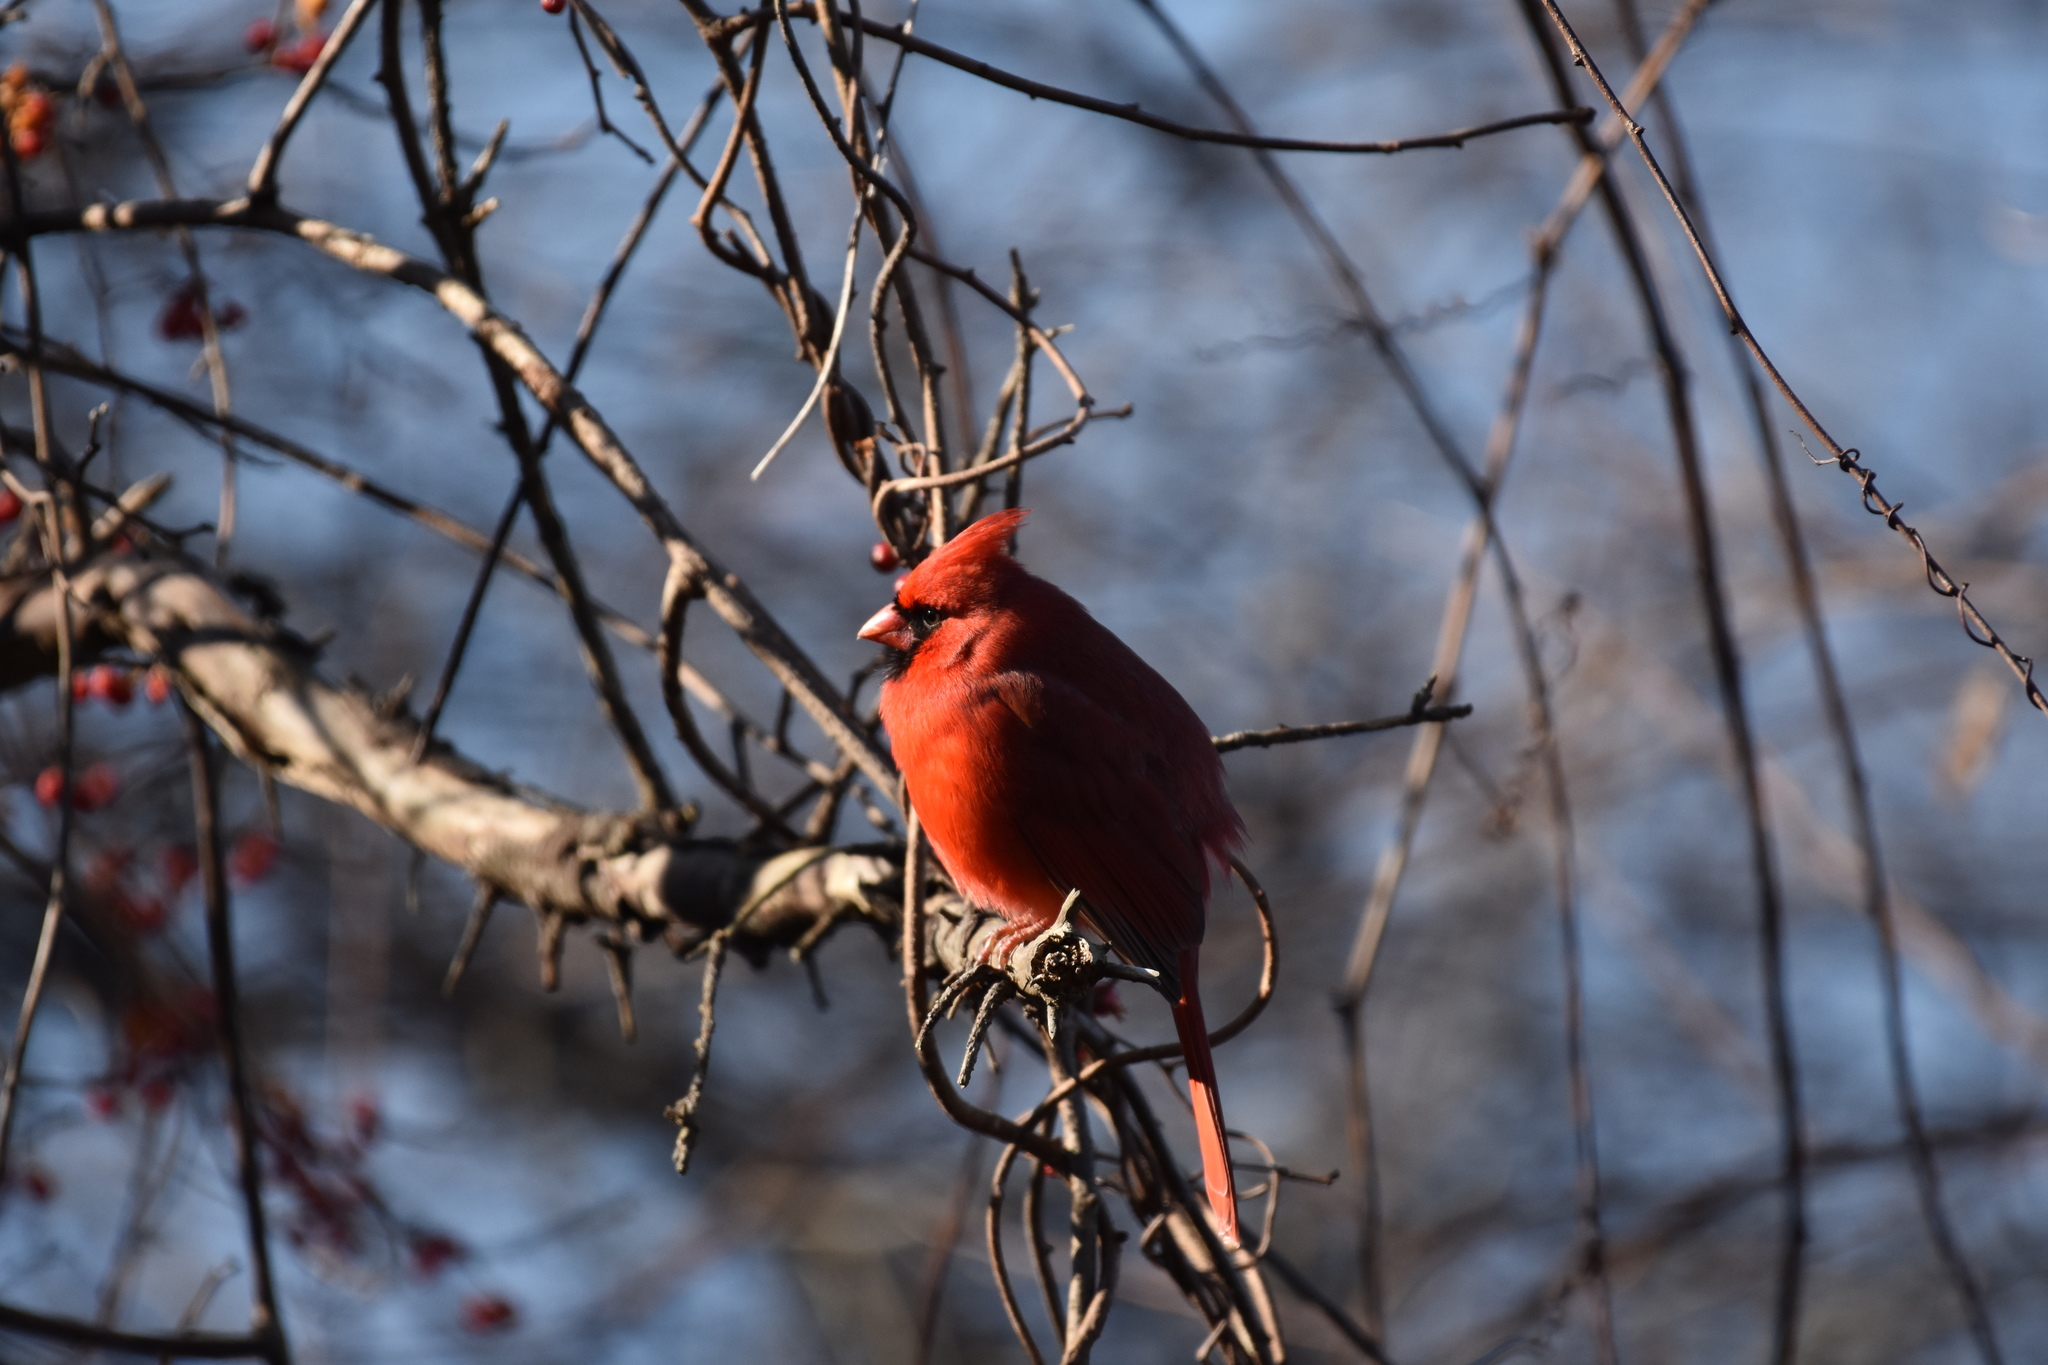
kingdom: Animalia
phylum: Chordata
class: Aves
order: Passeriformes
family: Cardinalidae
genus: Cardinalis
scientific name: Cardinalis cardinalis
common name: Northern cardinal
